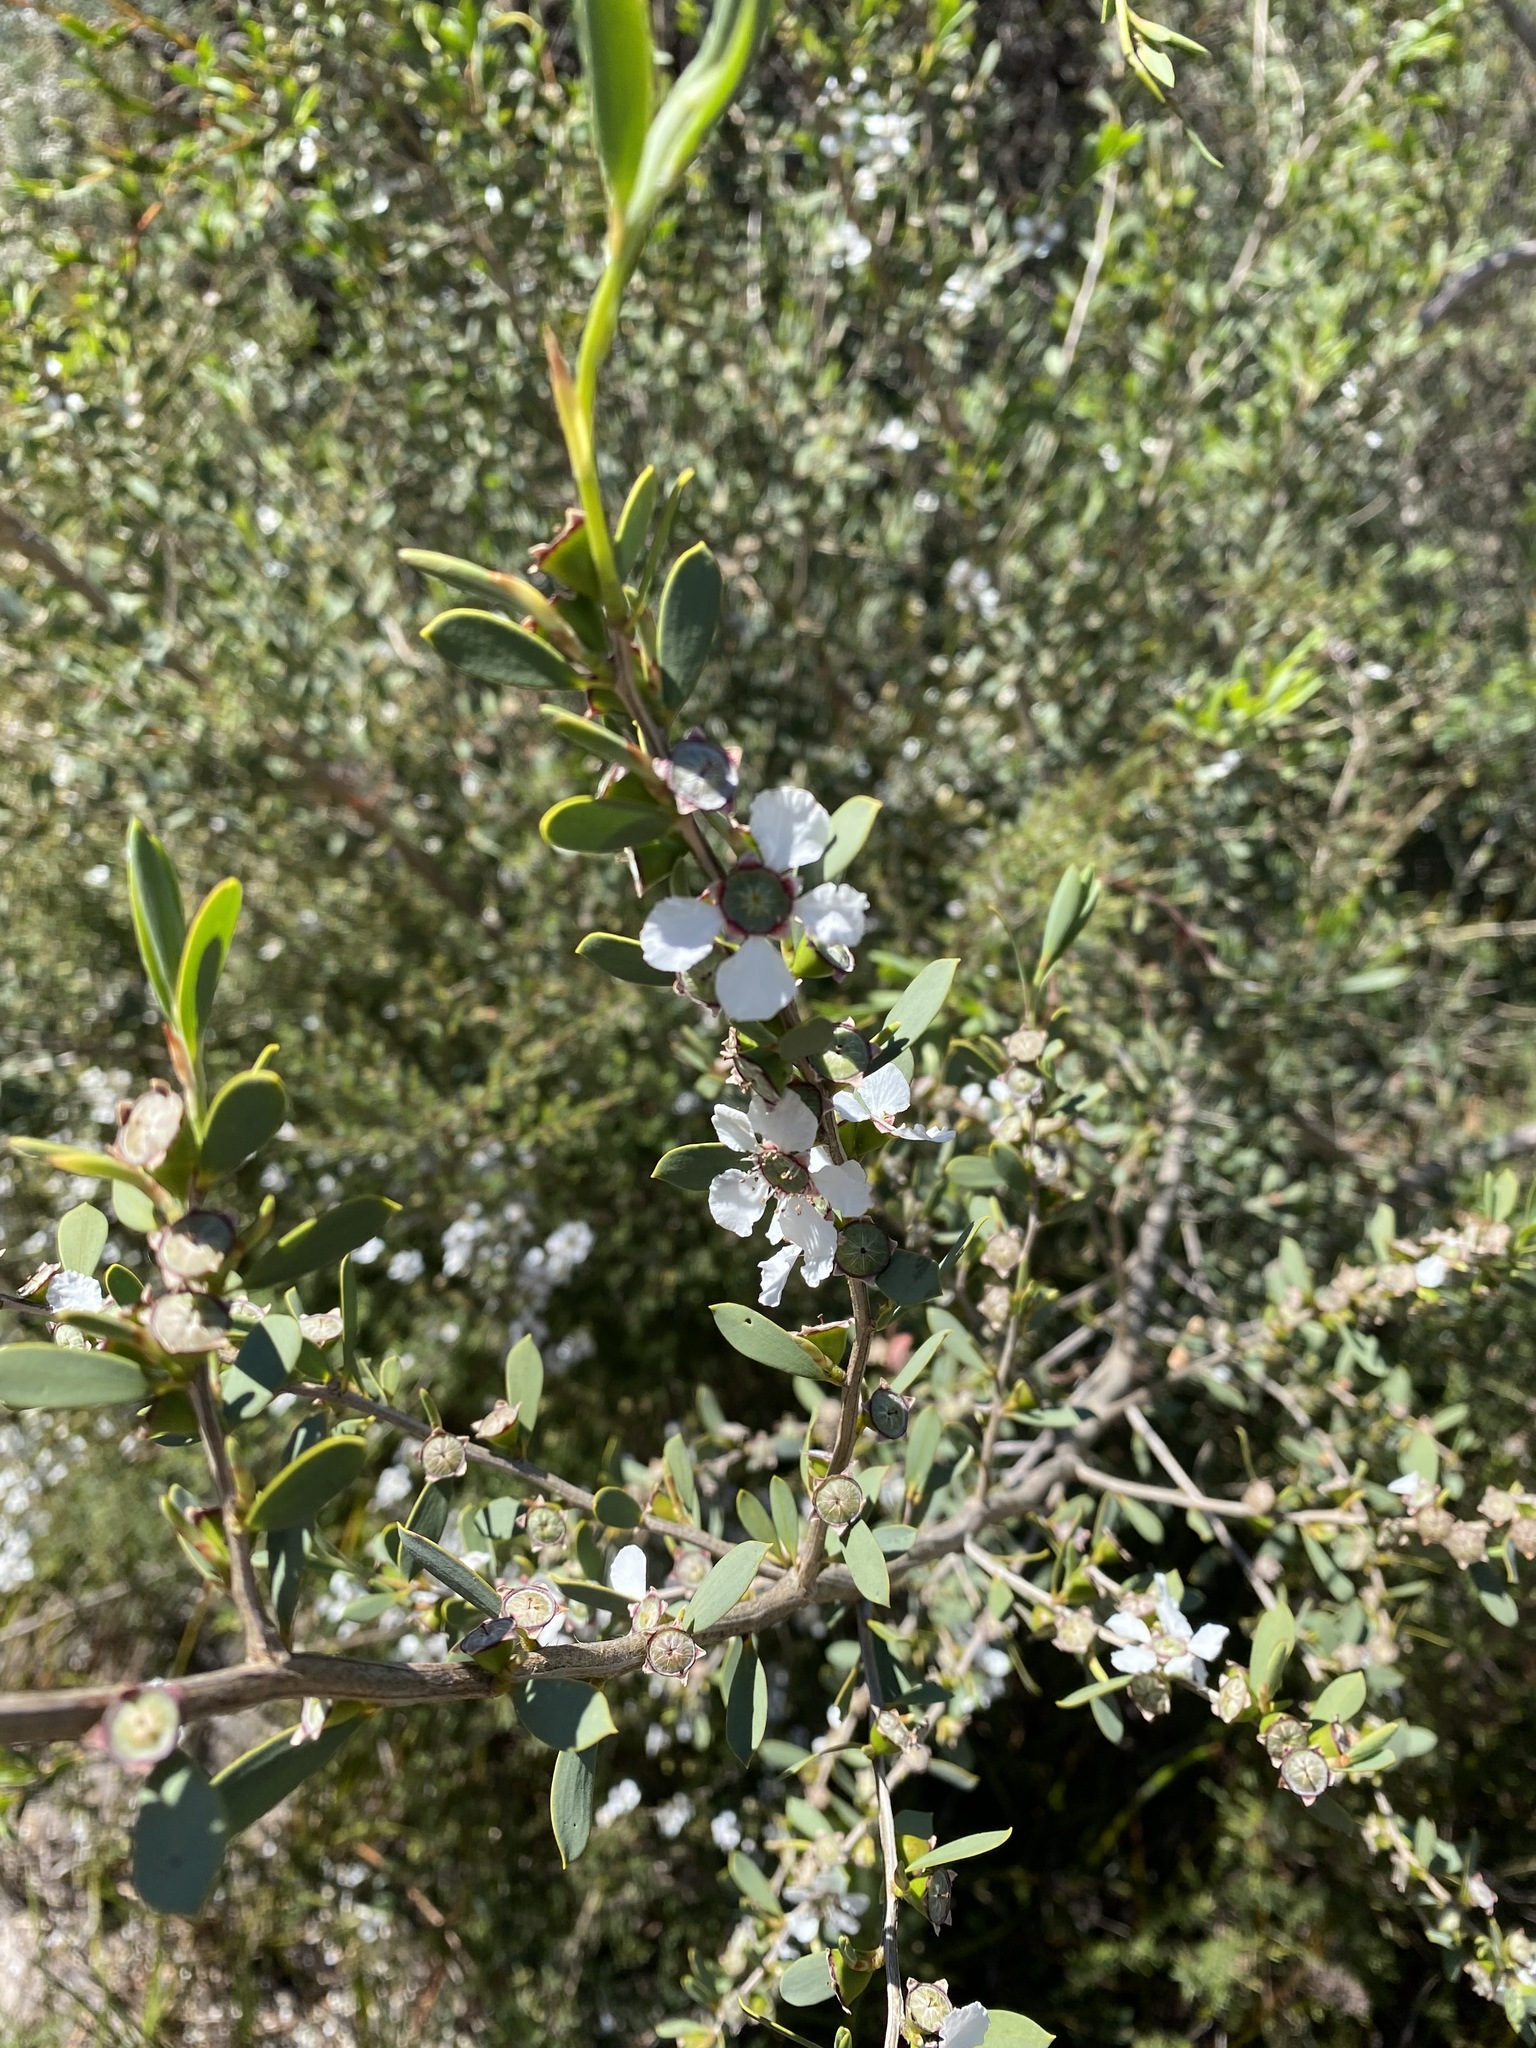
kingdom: Plantae
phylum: Tracheophyta
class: Magnoliopsida
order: Myrtales
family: Myrtaceae
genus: Leptospermum
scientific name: Leptospermum laevigatum
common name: Australian teatree
